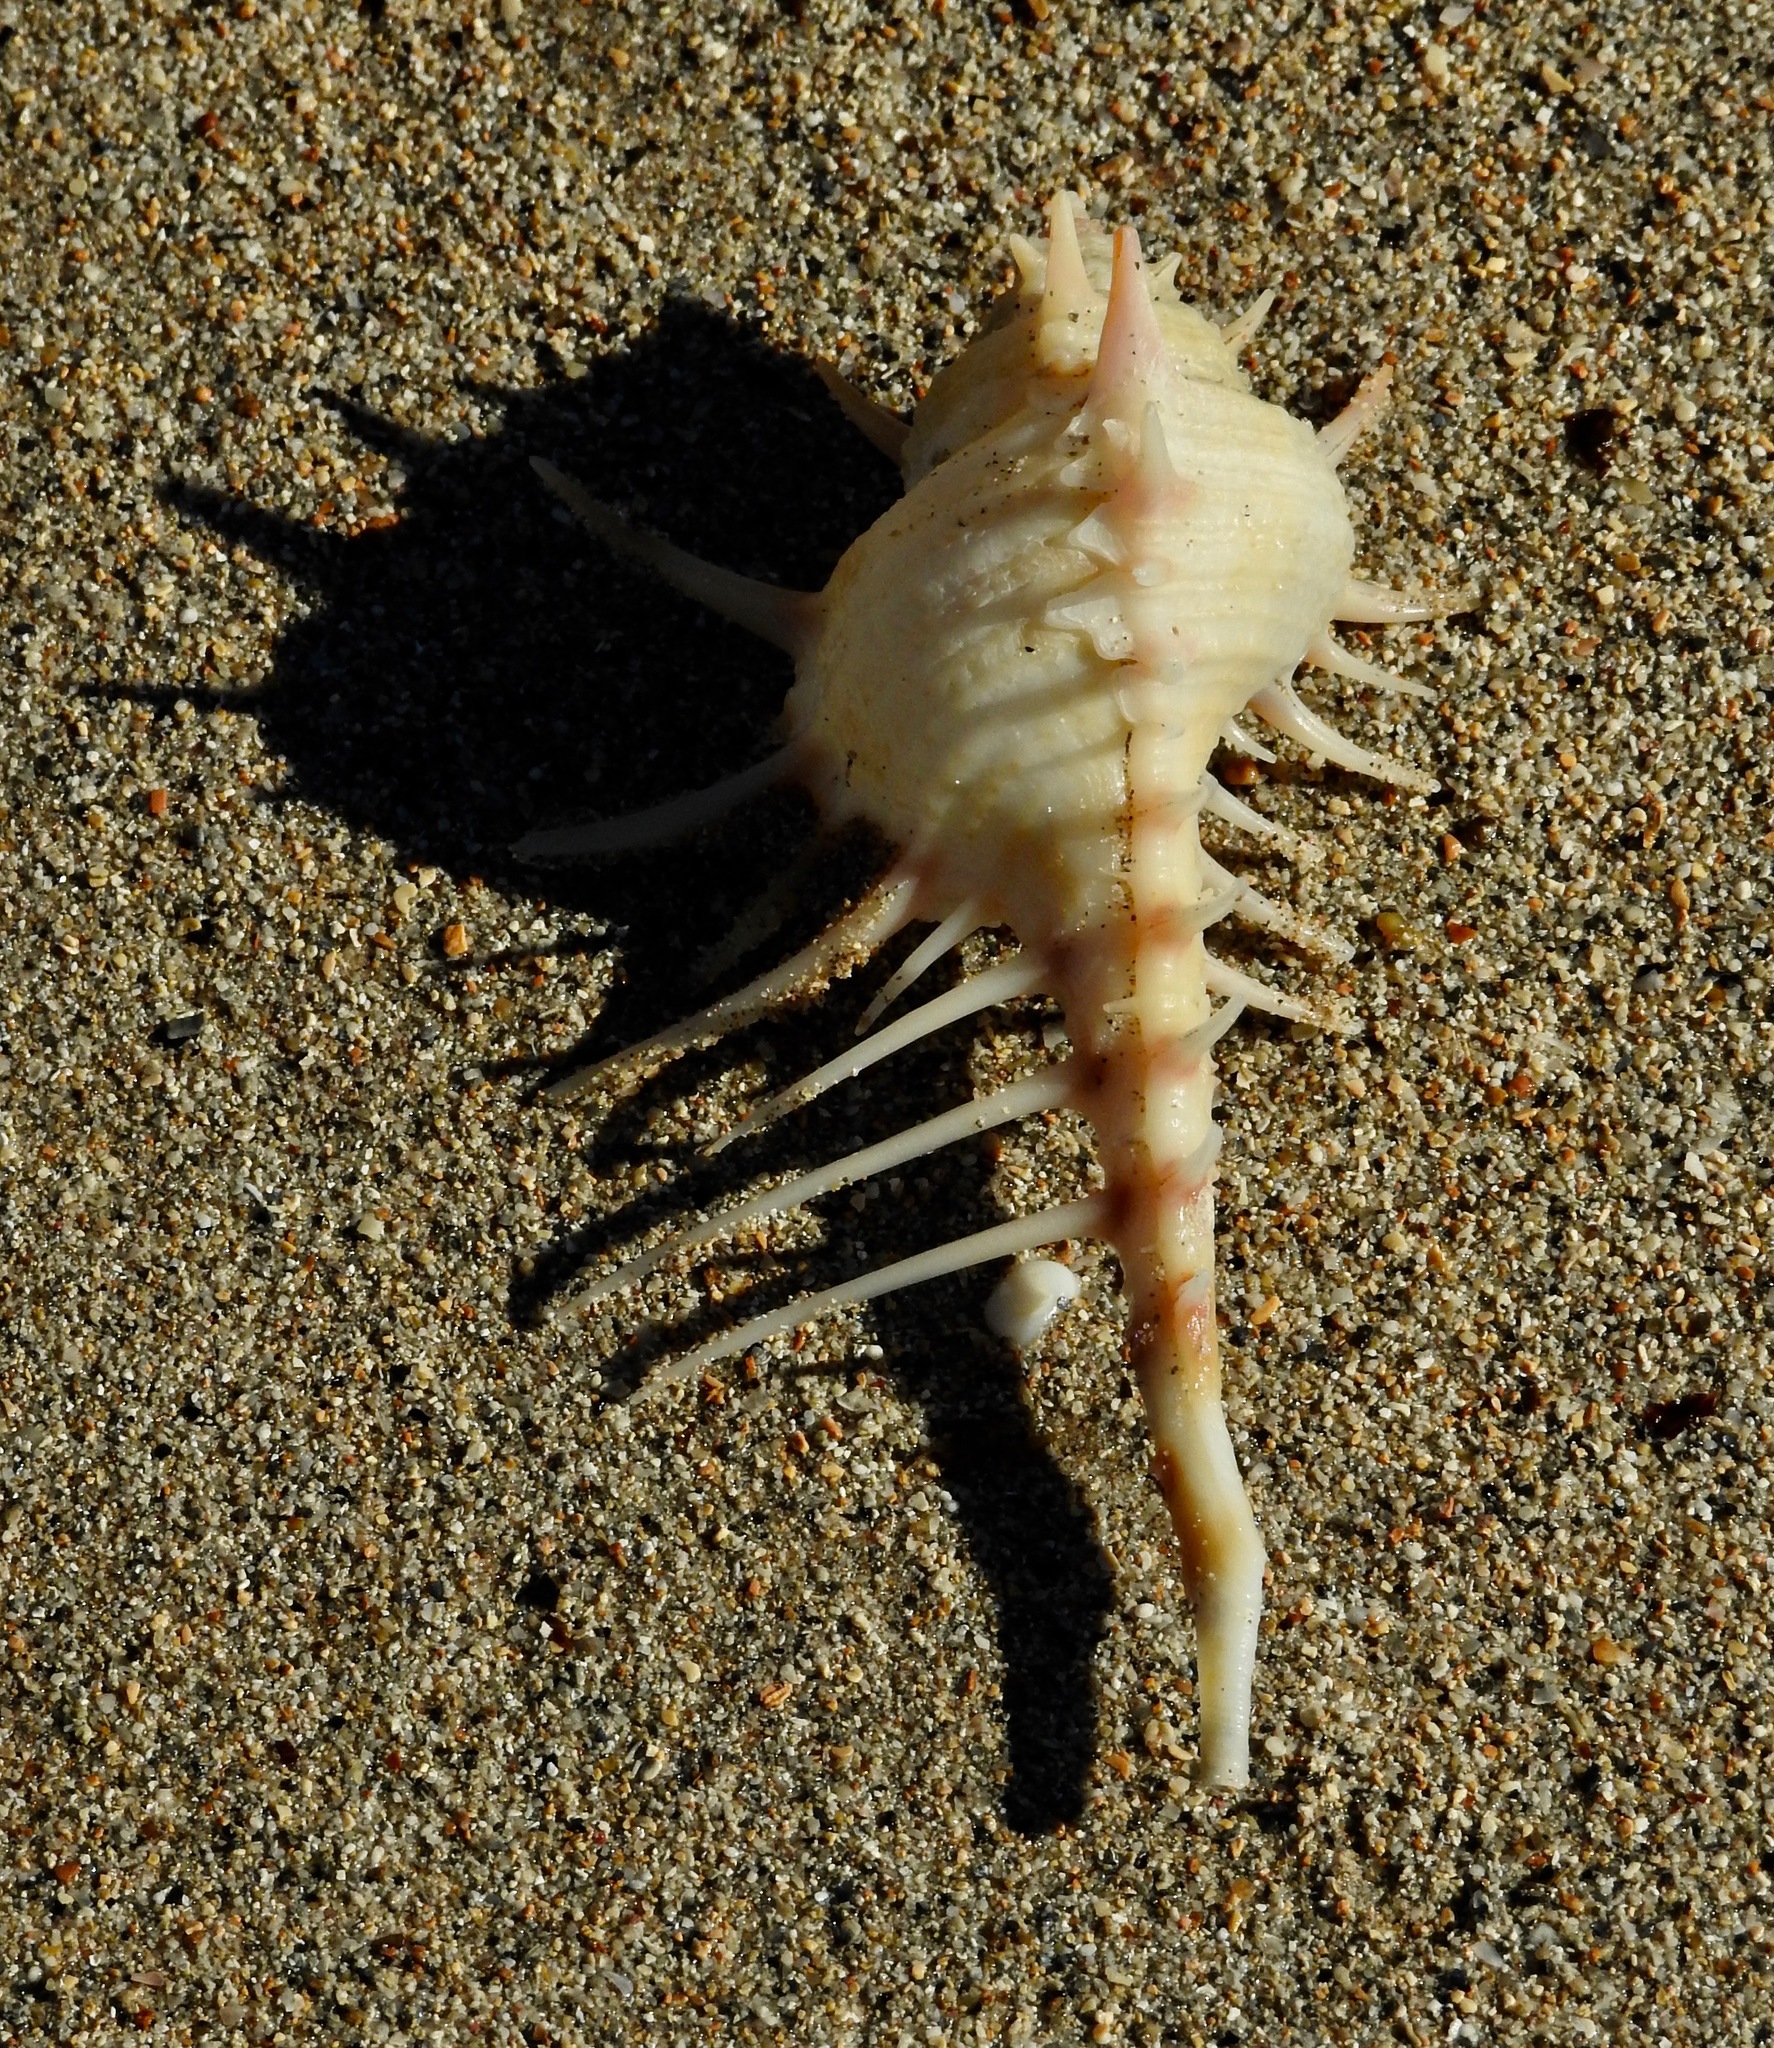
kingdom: Animalia
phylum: Mollusca
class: Gastropoda
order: Neogastropoda
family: Muricidae
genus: Murex
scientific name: Murex acanthostephes
